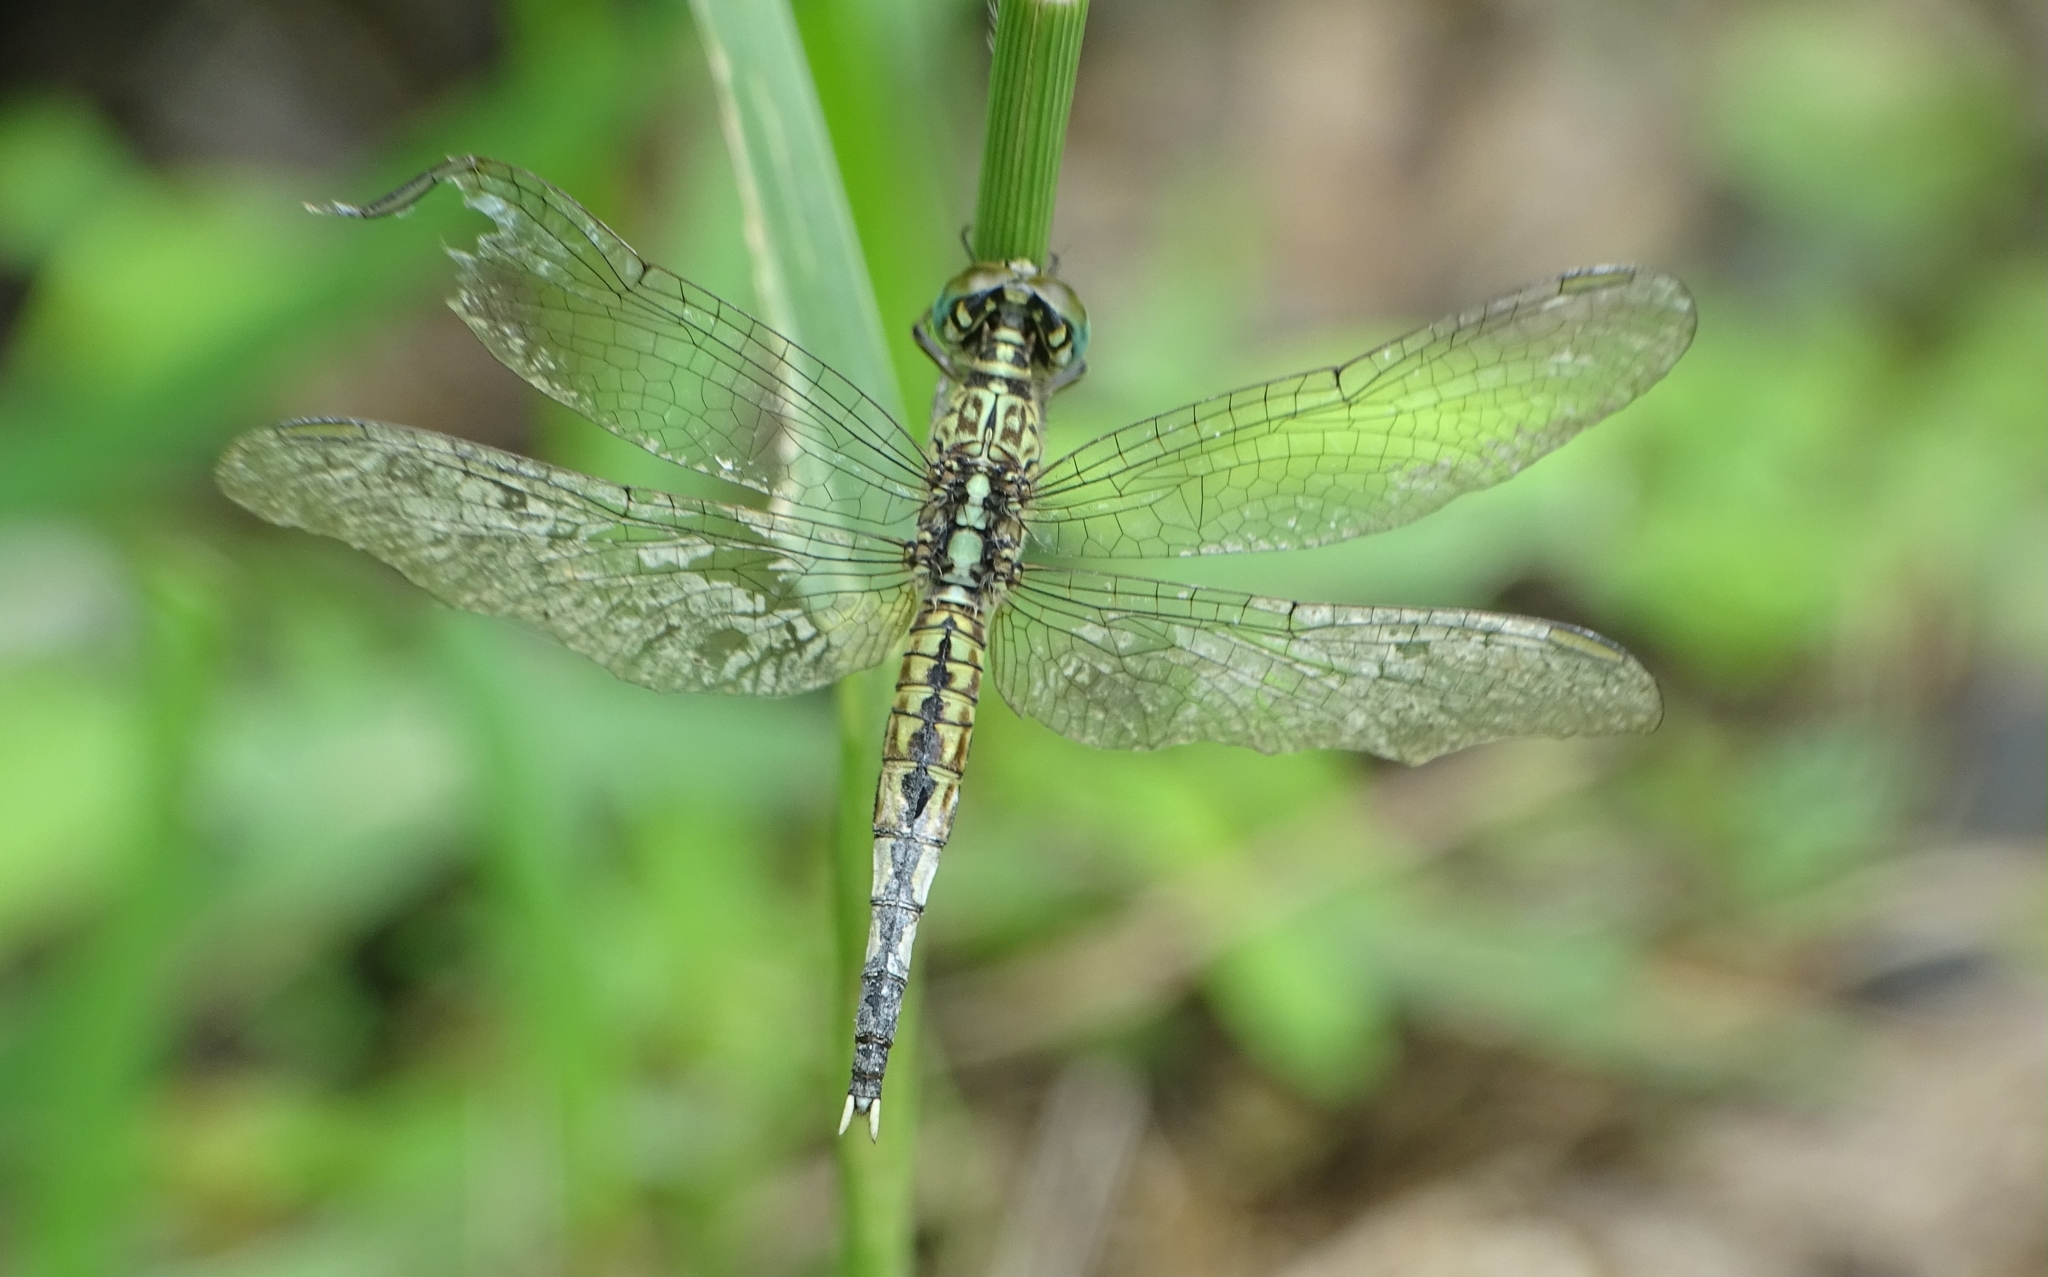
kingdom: Animalia
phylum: Arthropoda
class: Insecta
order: Odonata
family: Libellulidae
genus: Acisoma
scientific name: Acisoma panorpoides
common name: Asian pintail
